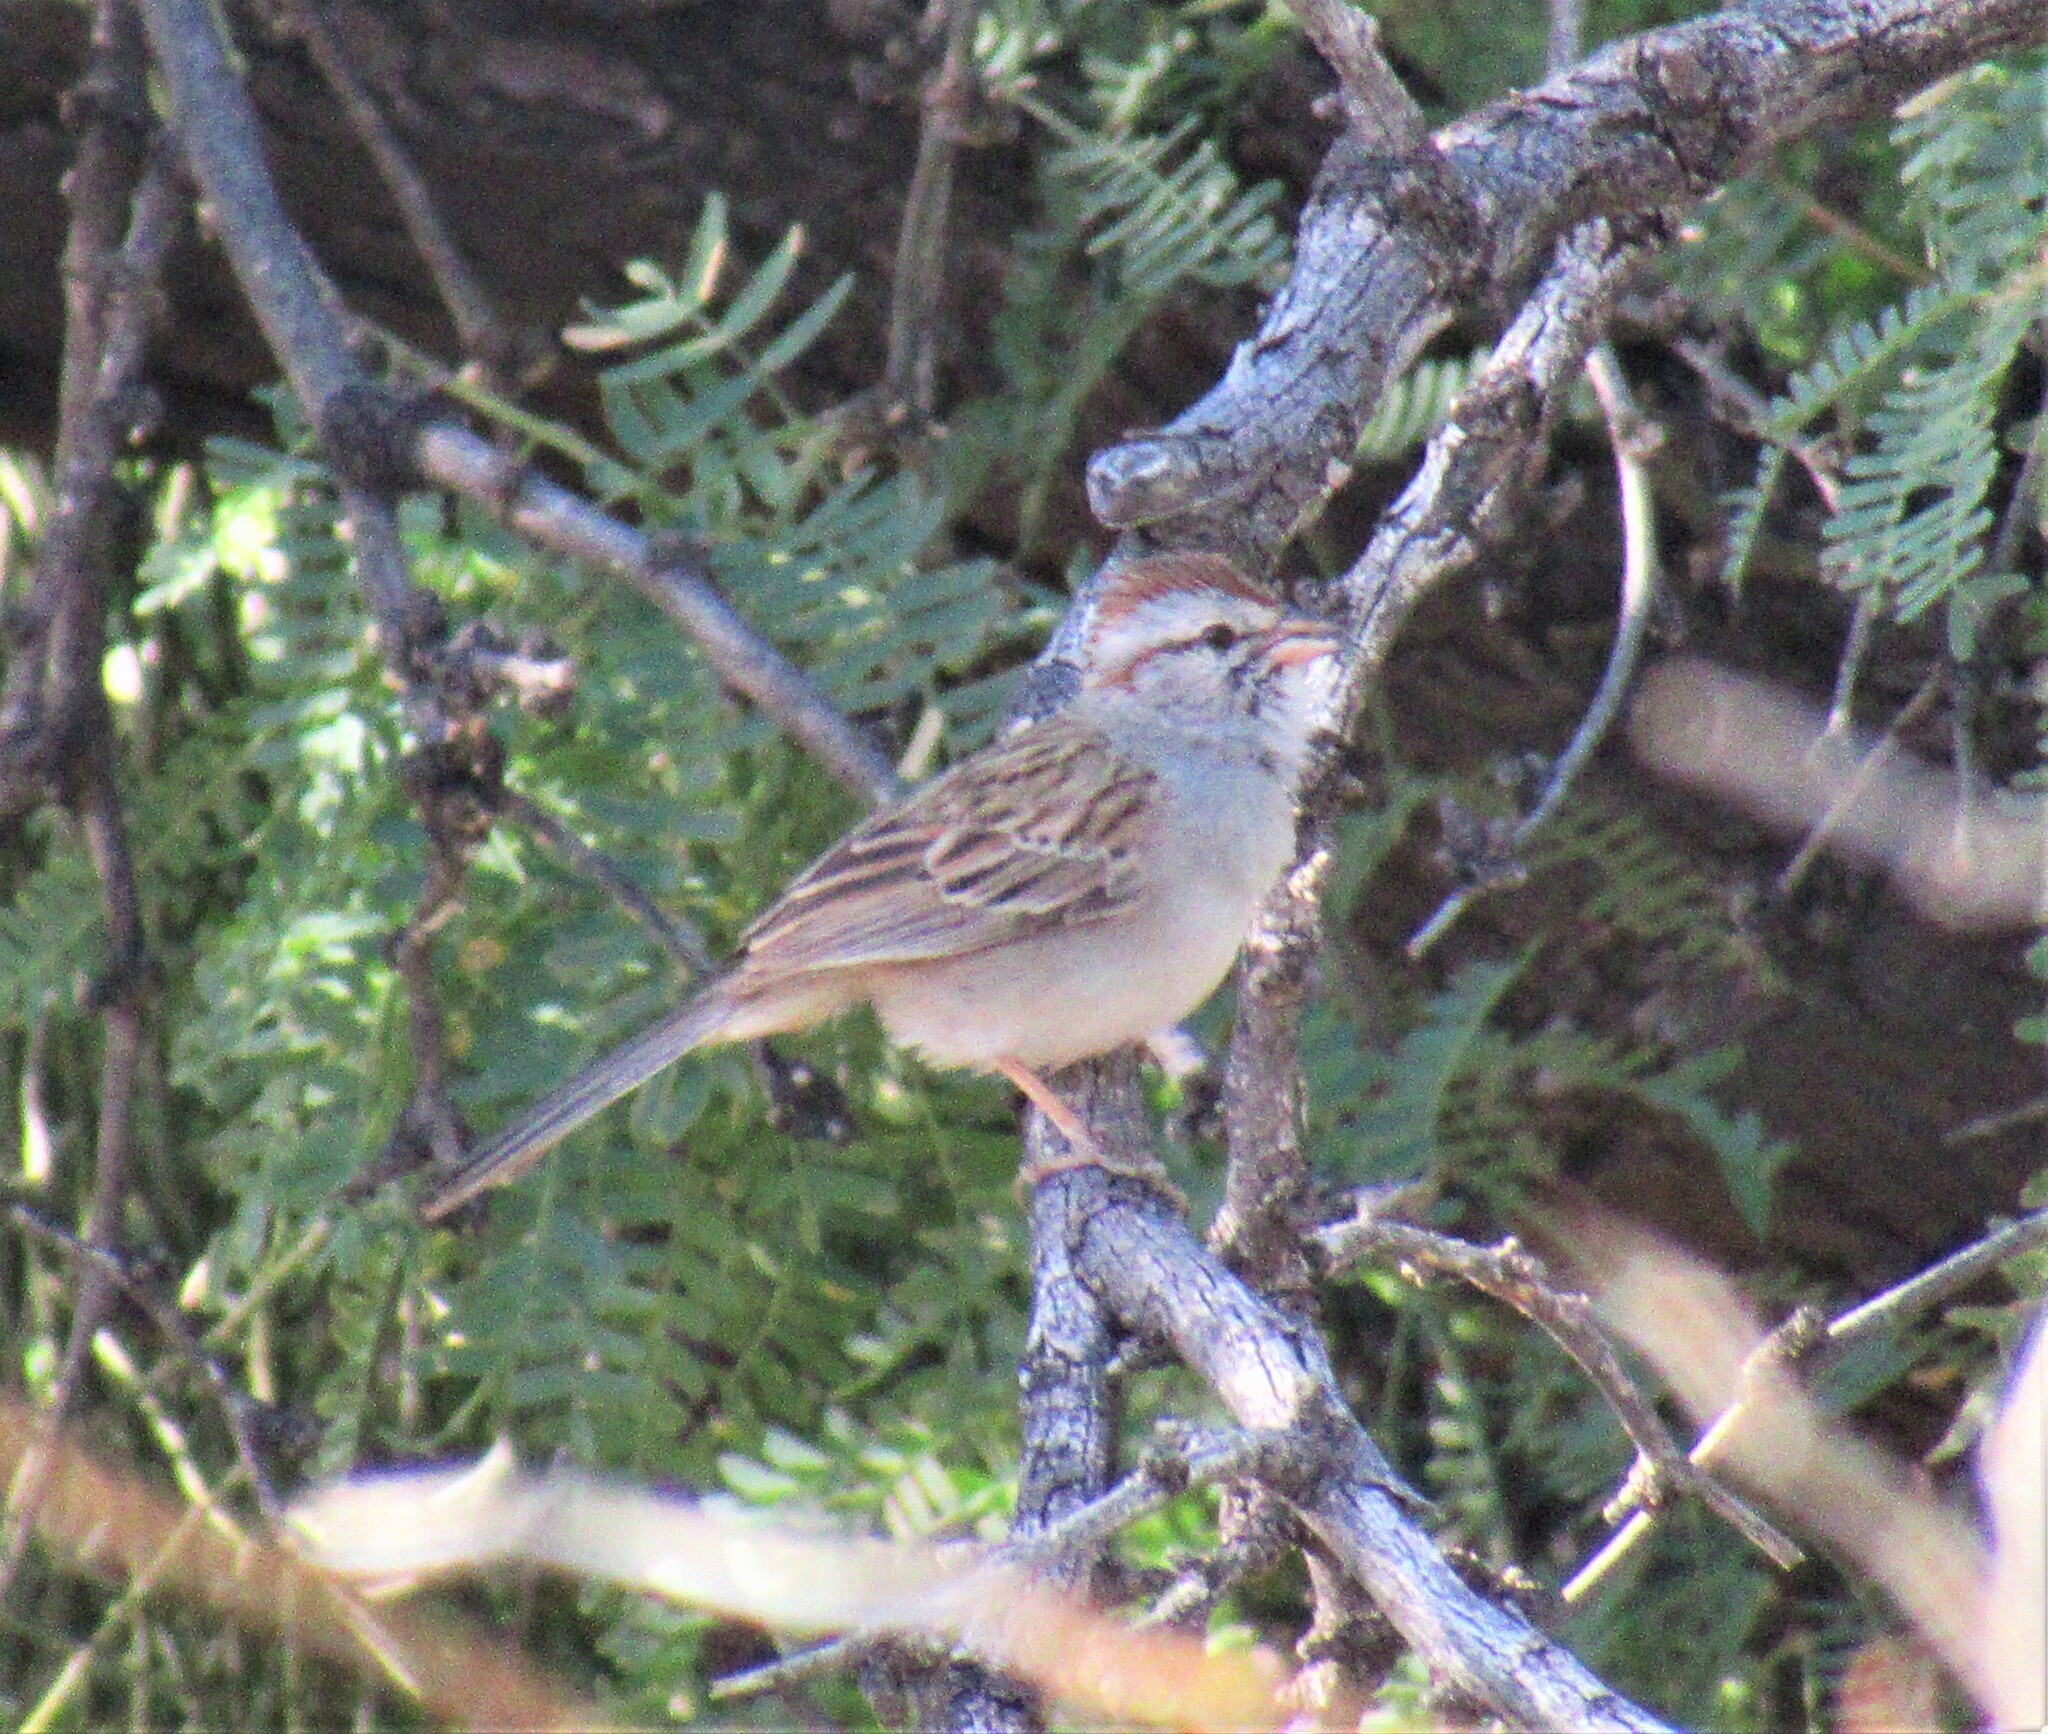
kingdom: Animalia
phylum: Chordata
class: Aves
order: Passeriformes
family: Passerellidae
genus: Peucaea
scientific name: Peucaea carpalis
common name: Rufous-winged sparrow
